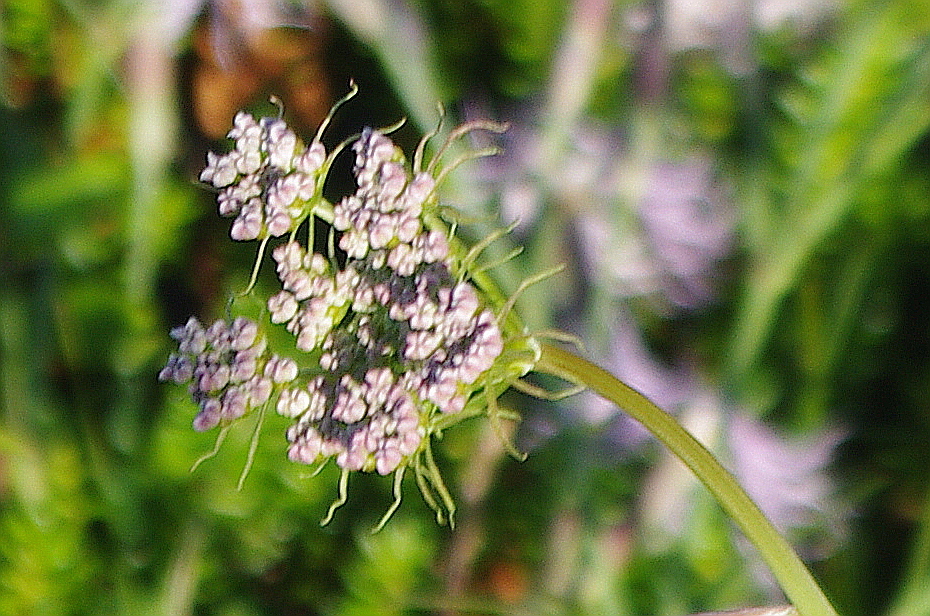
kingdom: Plantae
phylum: Tracheophyta
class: Magnoliopsida
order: Apiales
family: Apiaceae
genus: Conioselinum
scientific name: Conioselinum tataricum
